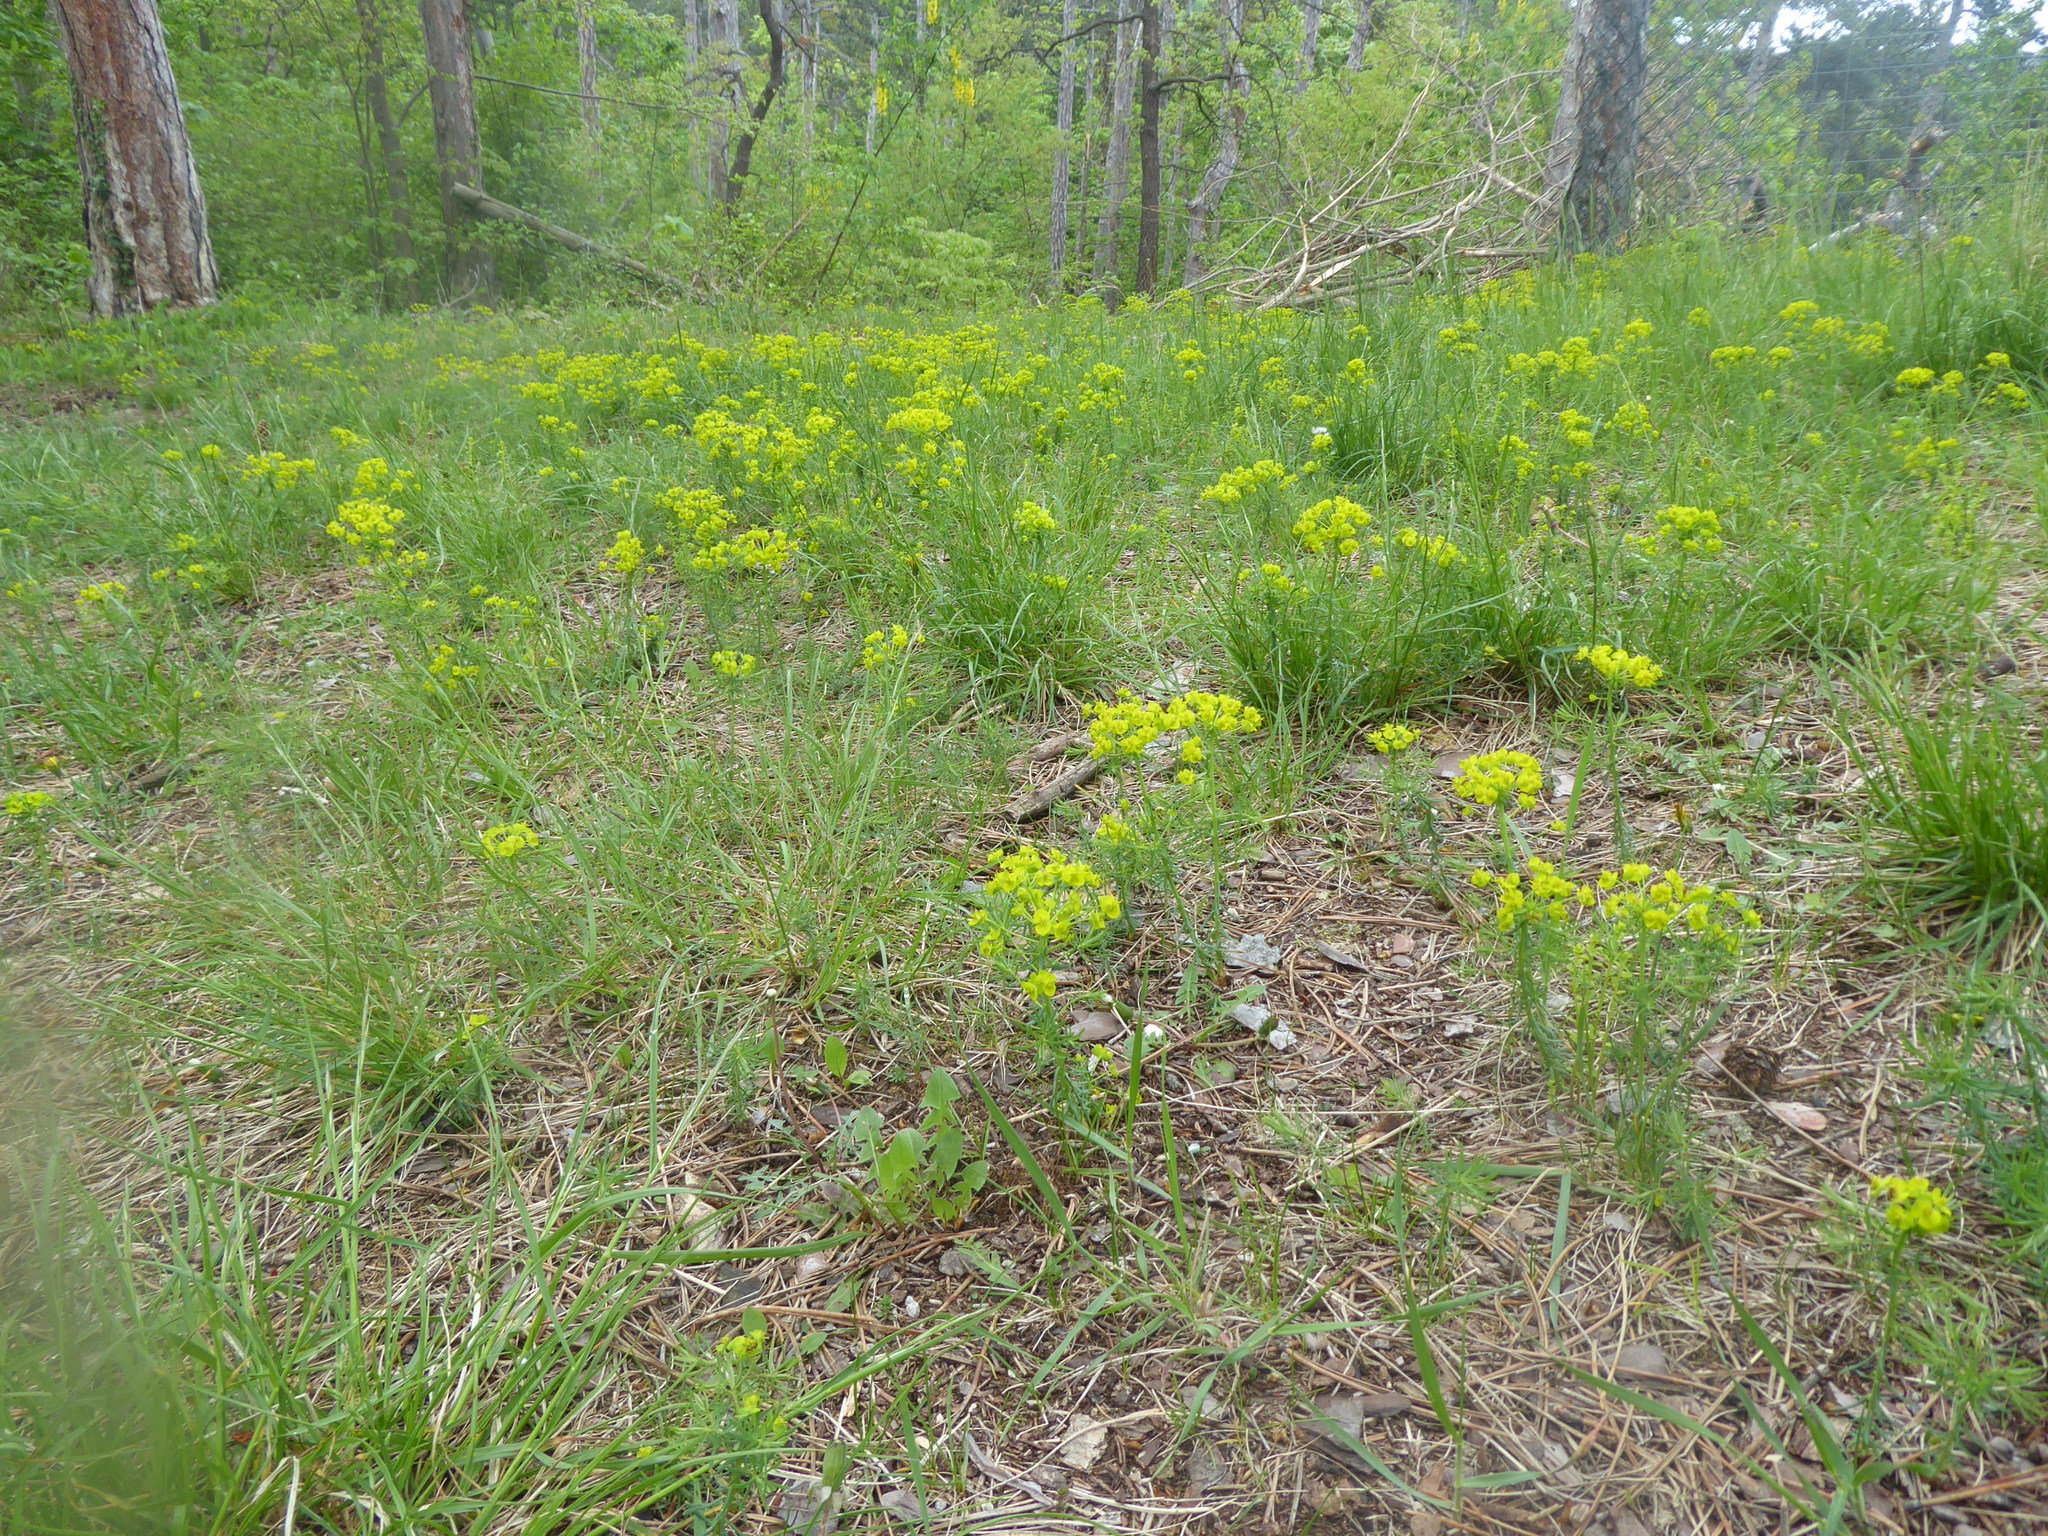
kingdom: Plantae
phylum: Tracheophyta
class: Magnoliopsida
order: Malpighiales
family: Euphorbiaceae
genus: Euphorbia
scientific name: Euphorbia cyparissias
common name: Cypress spurge
